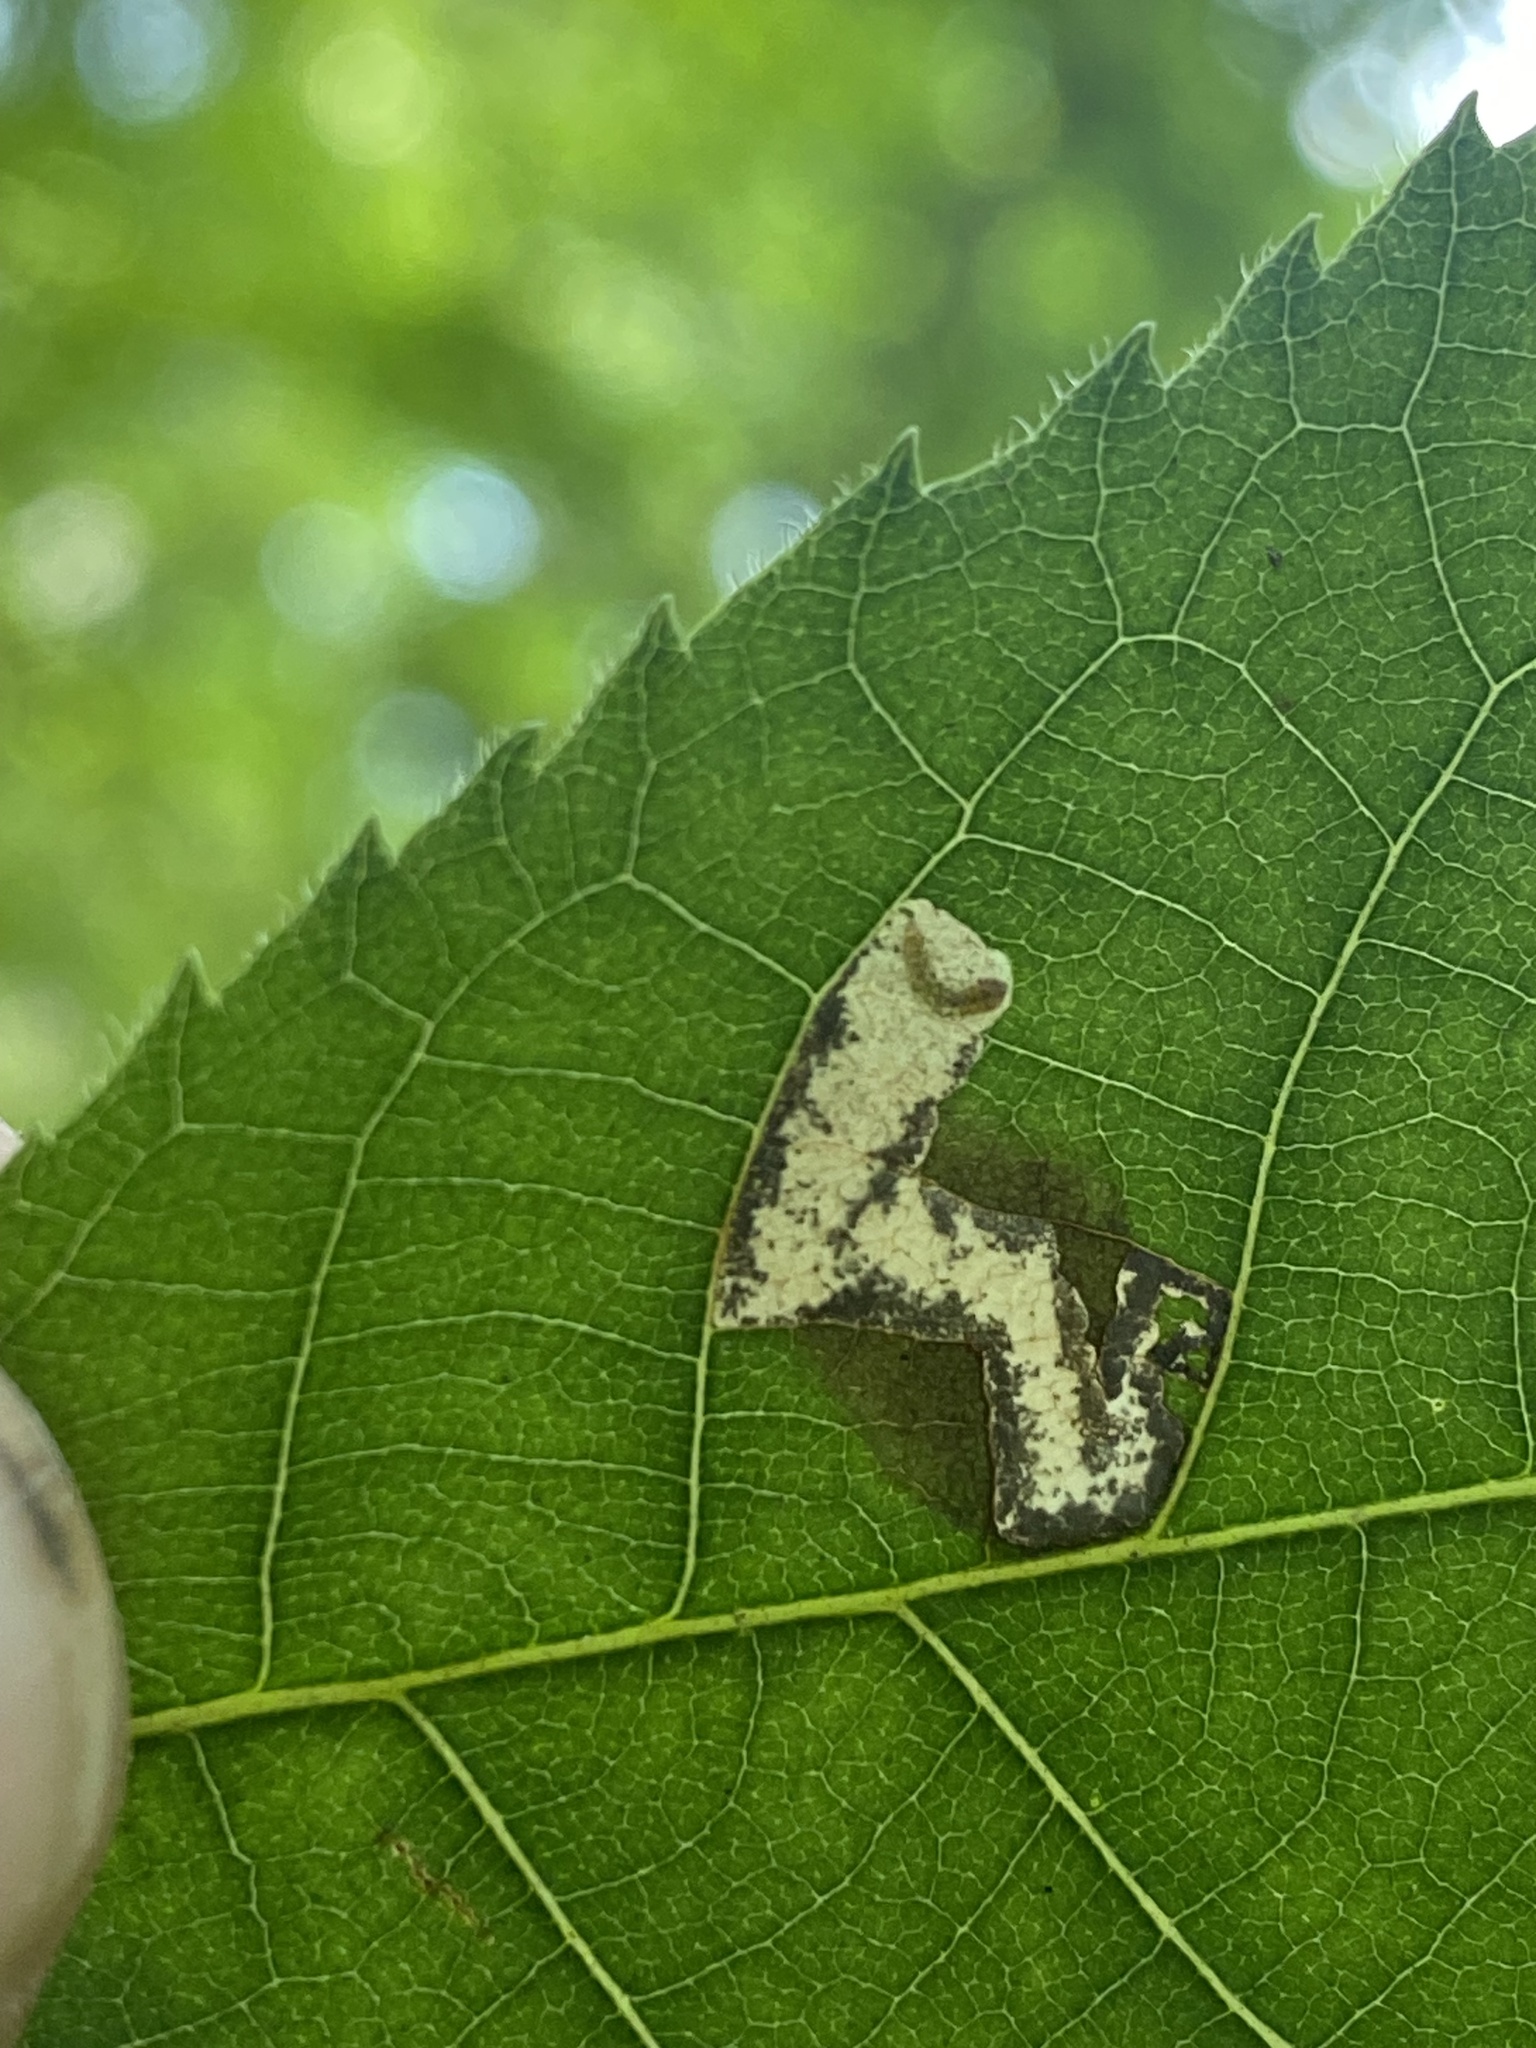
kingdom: Animalia
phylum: Arthropoda
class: Insecta
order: Lepidoptera
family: Heliozelidae
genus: Coptodisca
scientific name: Coptodisca lucifluella
